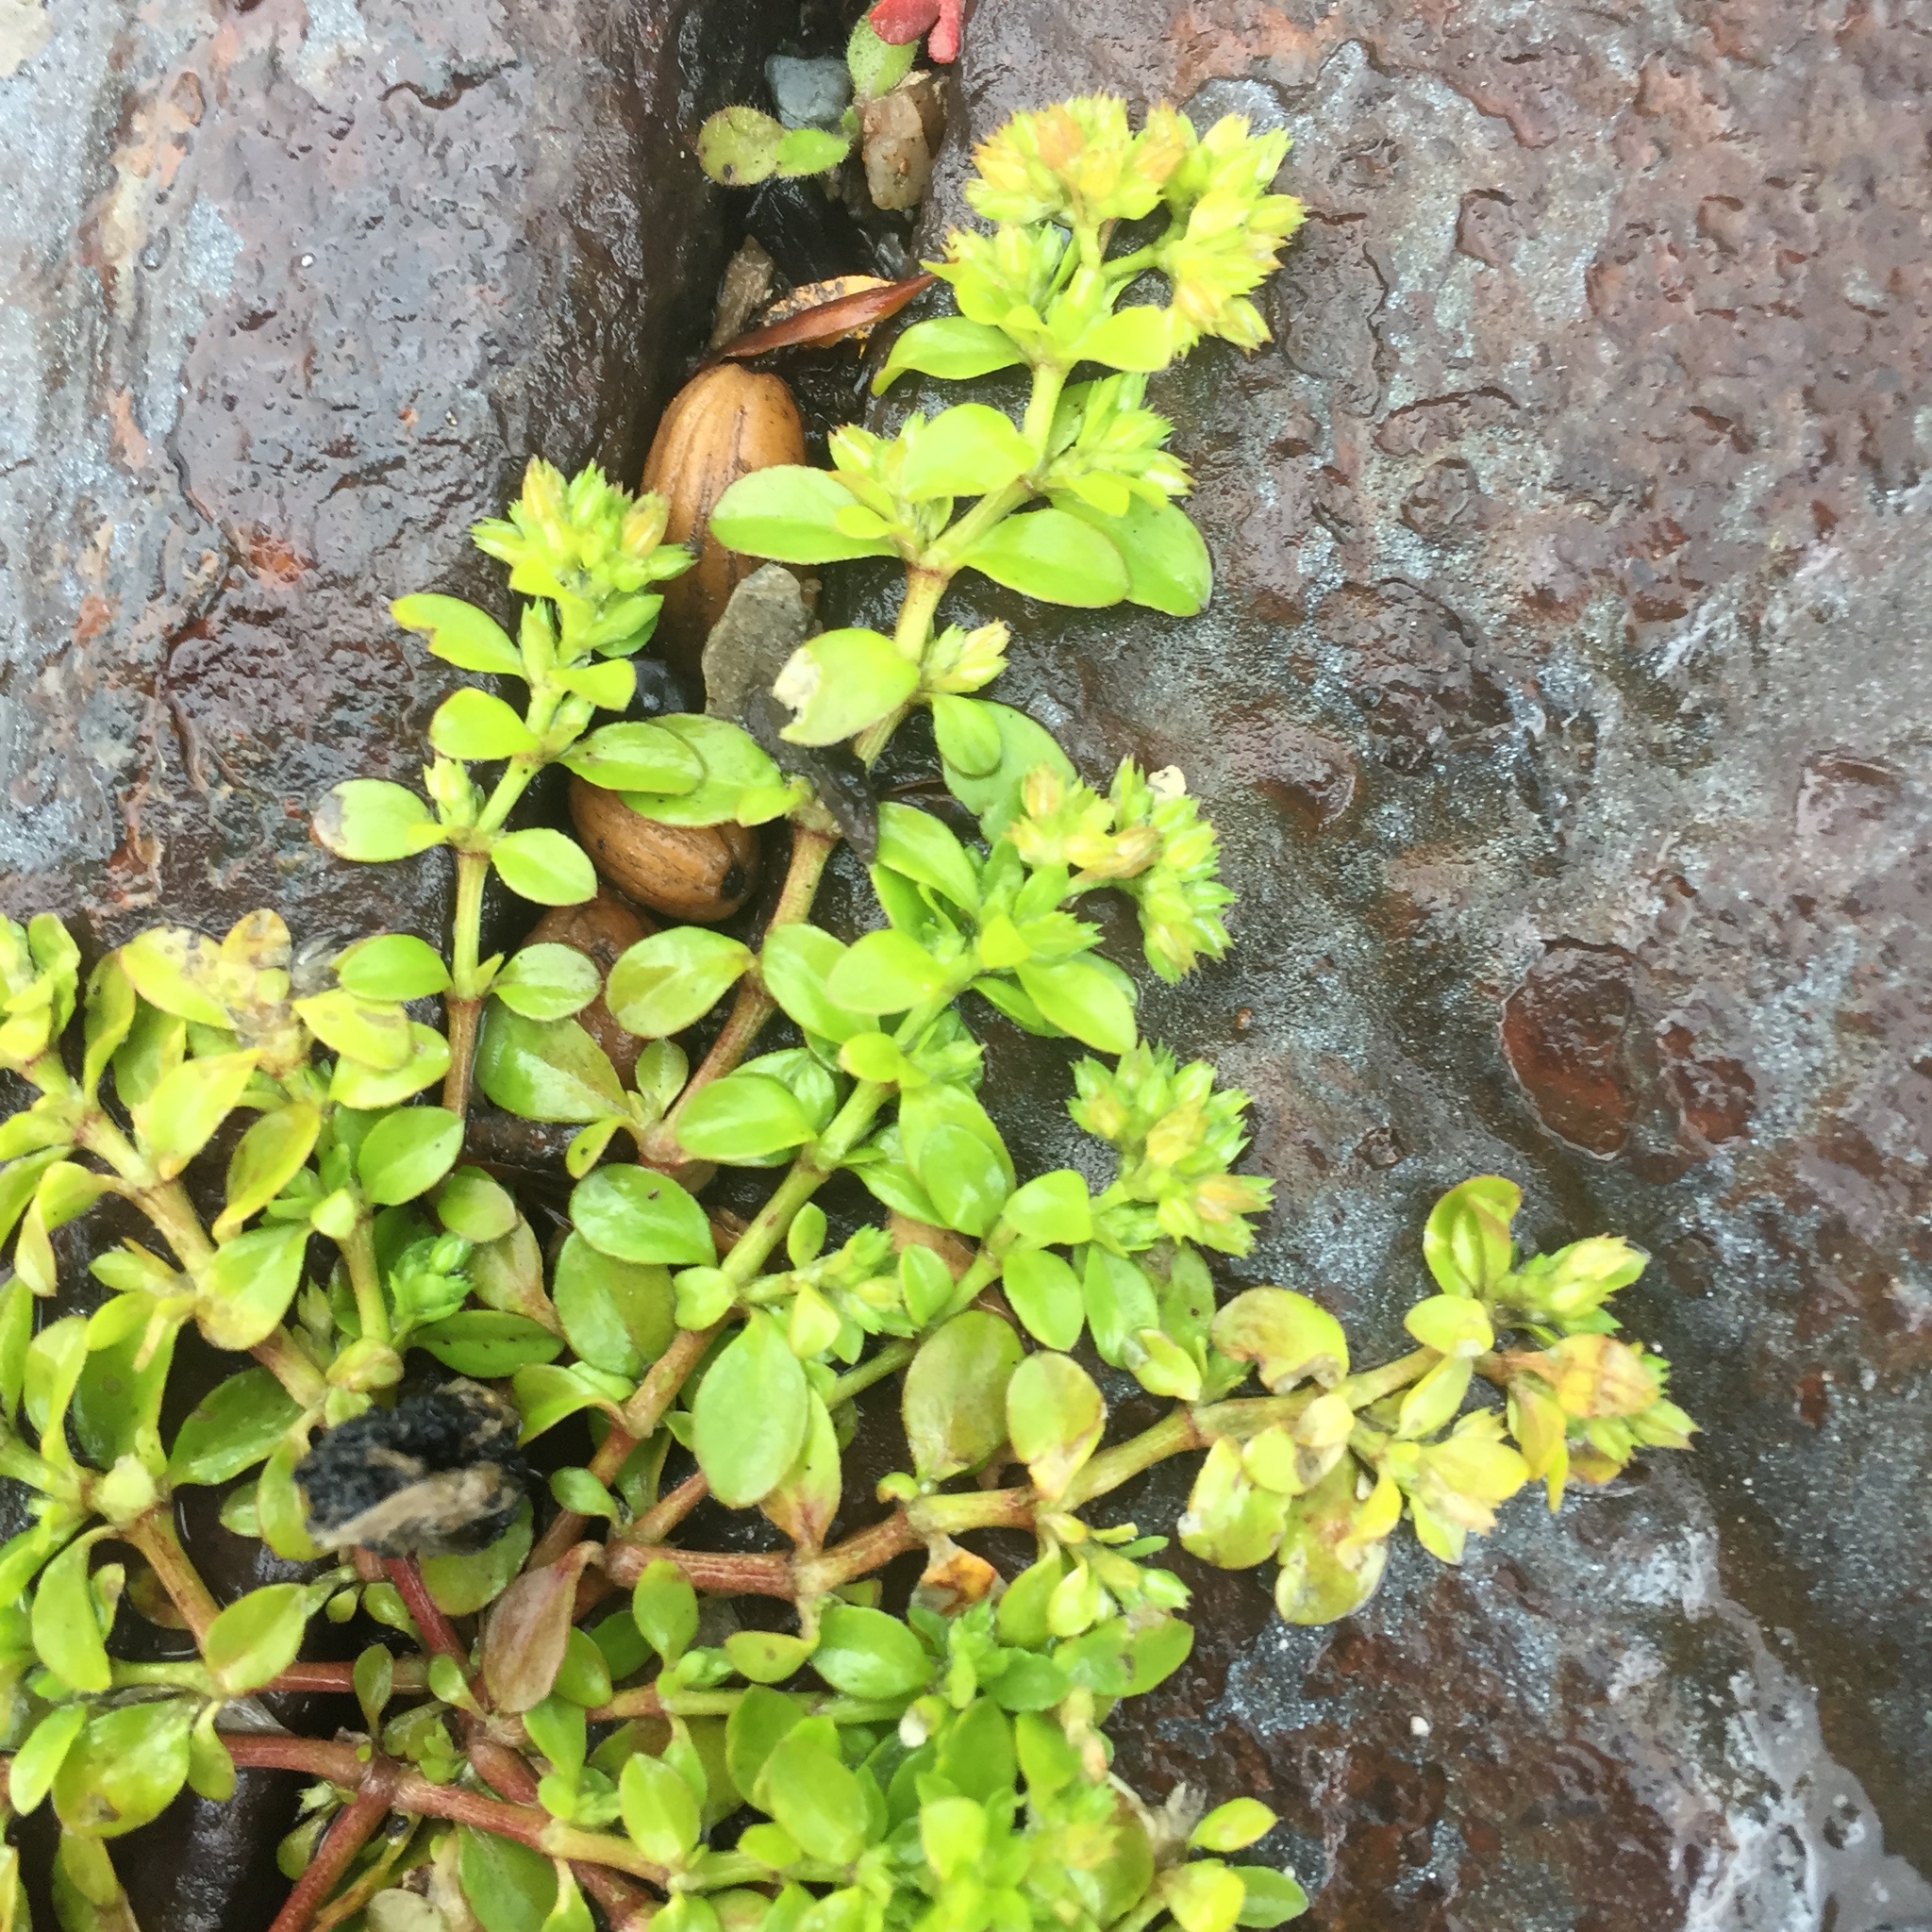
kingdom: Plantae
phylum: Tracheophyta
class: Magnoliopsida
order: Caryophyllales
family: Caryophyllaceae
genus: Polycarpon
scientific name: Polycarpon tetraphyllum
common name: Four-leaved all-seed
